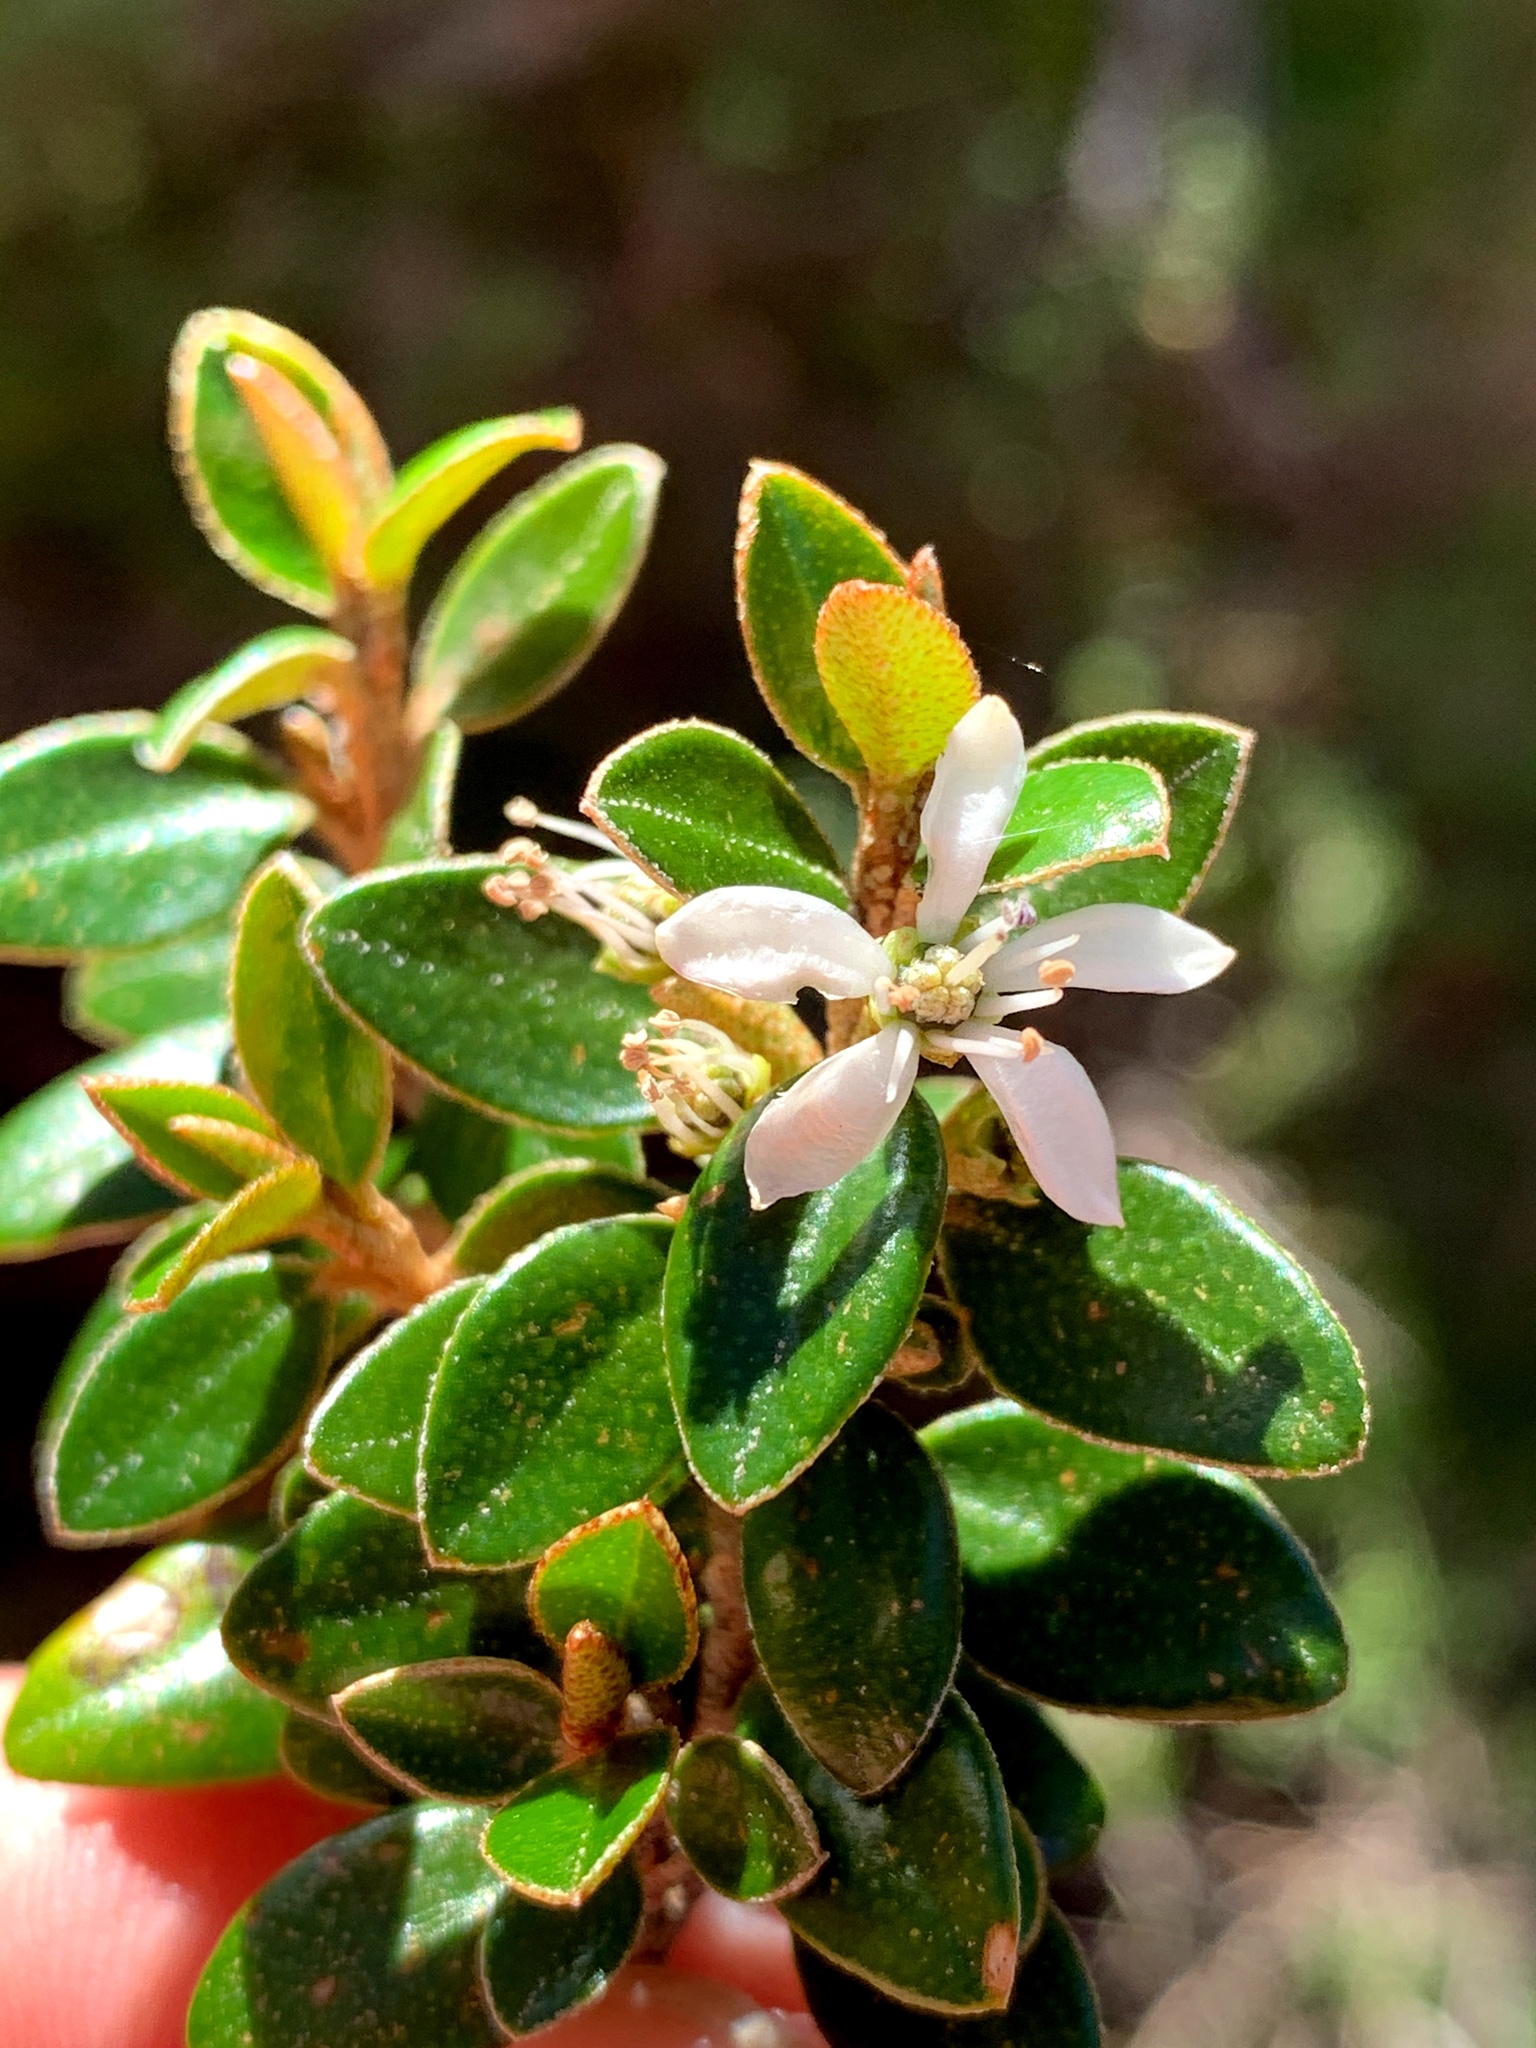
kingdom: Plantae
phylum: Tracheophyta
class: Magnoliopsida
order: Sapindales
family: Rutaceae
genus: Nematolepis
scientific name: Nematolepis ovatifolia
